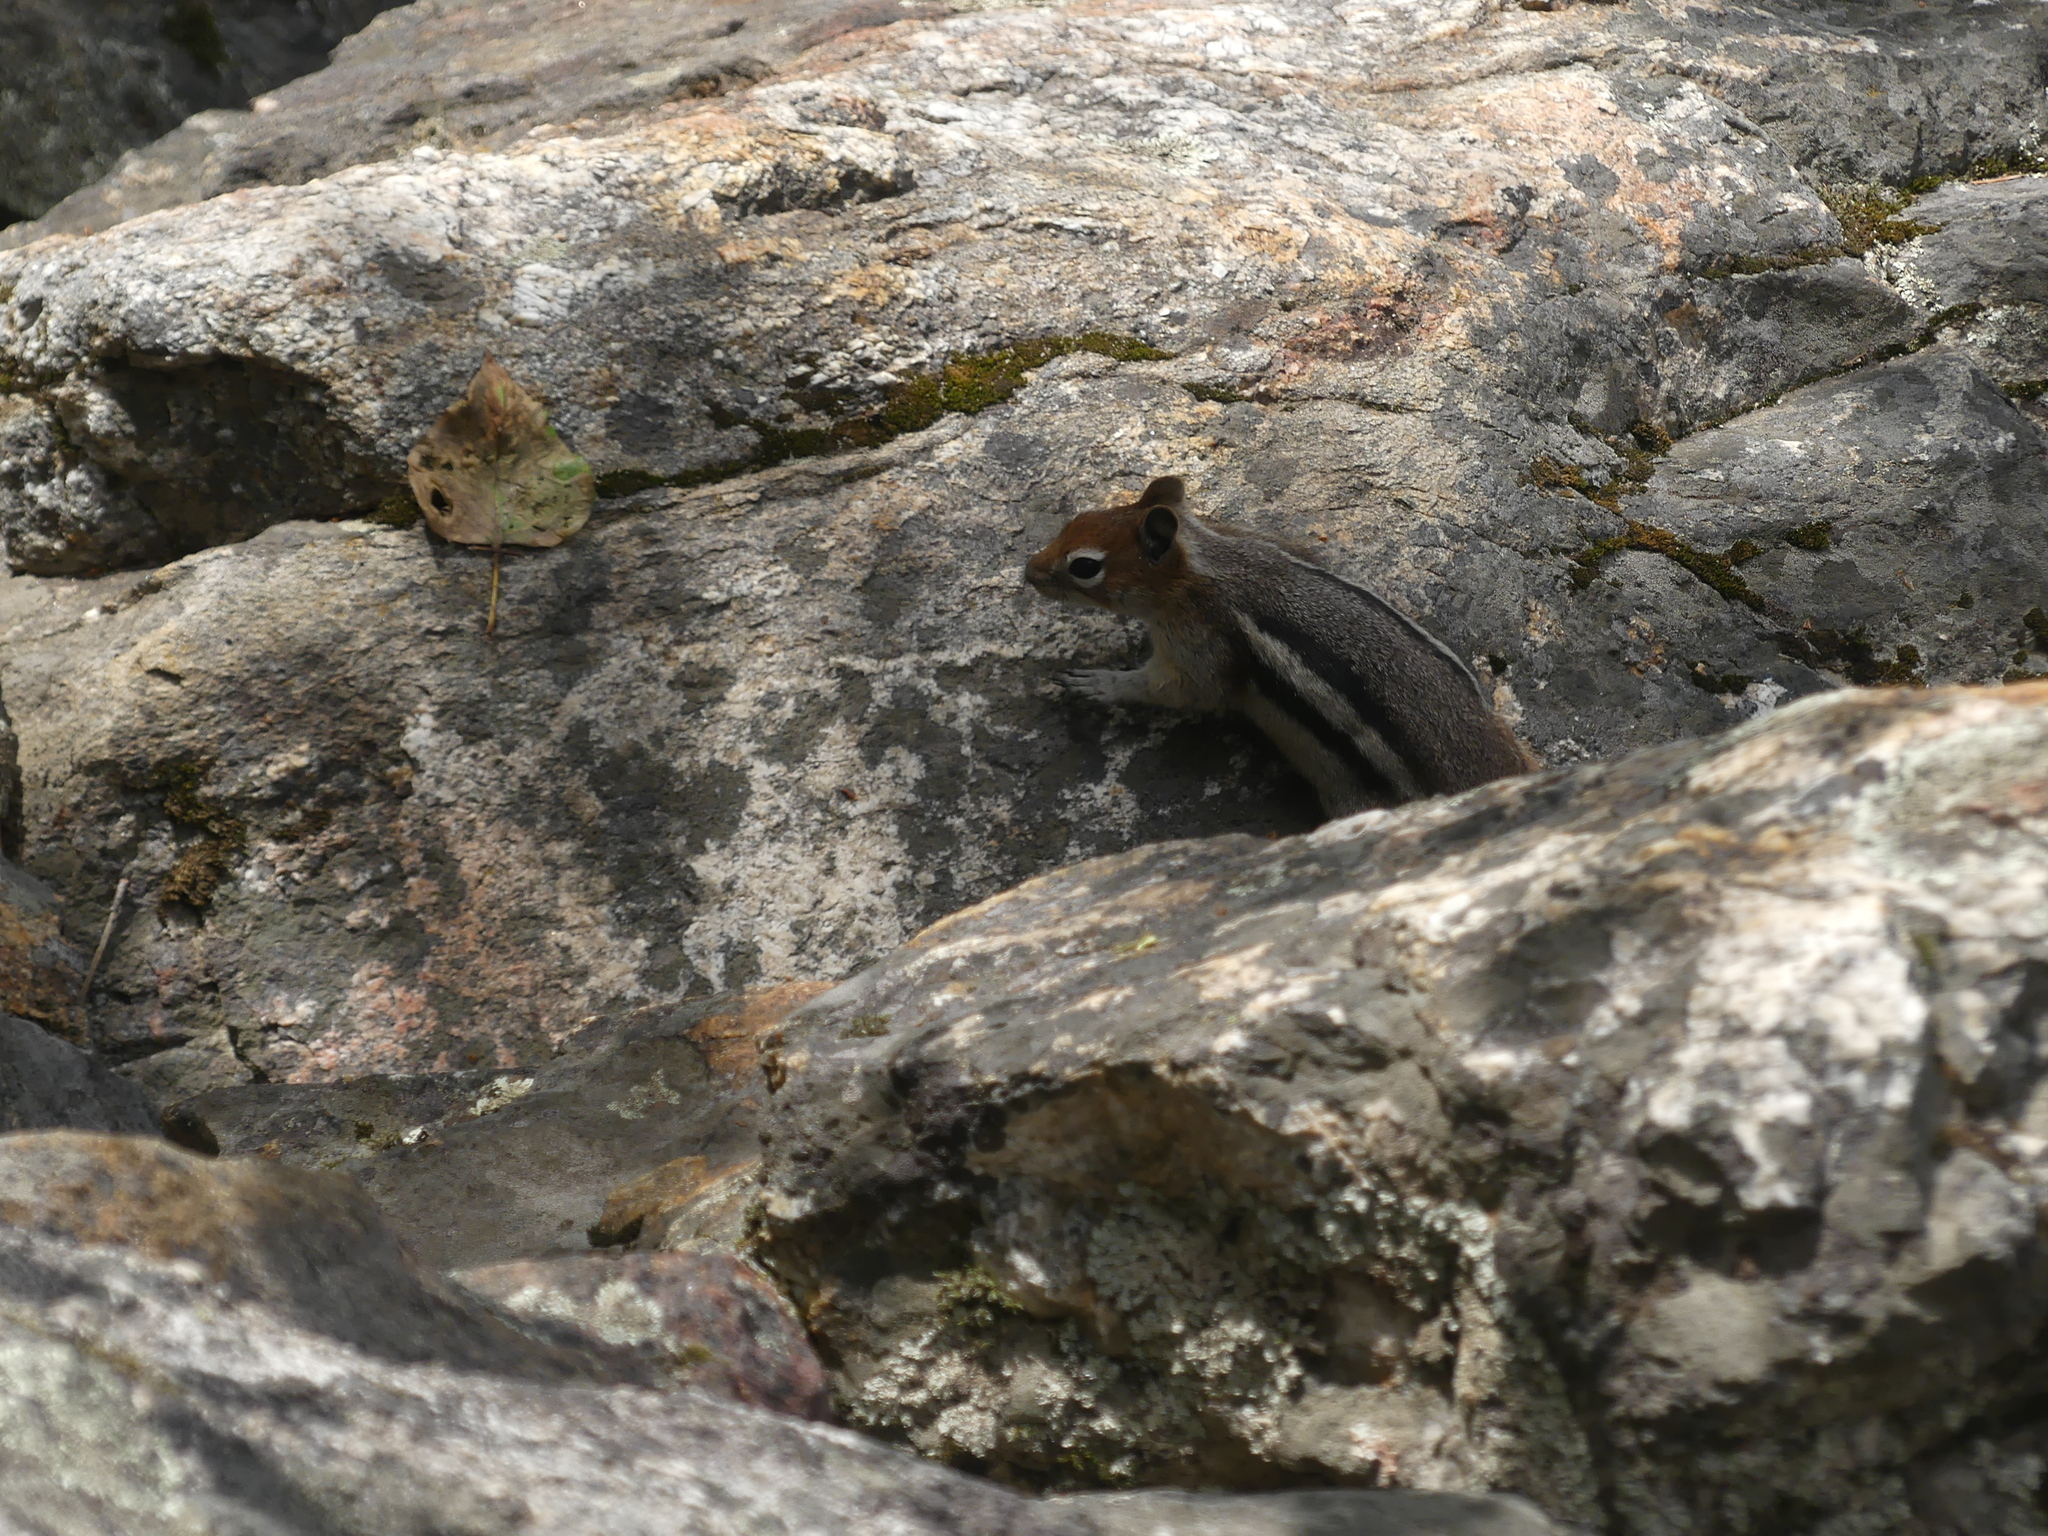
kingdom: Animalia
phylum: Chordata
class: Mammalia
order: Rodentia
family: Sciuridae
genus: Callospermophilus
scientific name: Callospermophilus lateralis
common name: Golden-mantled ground squirrel
